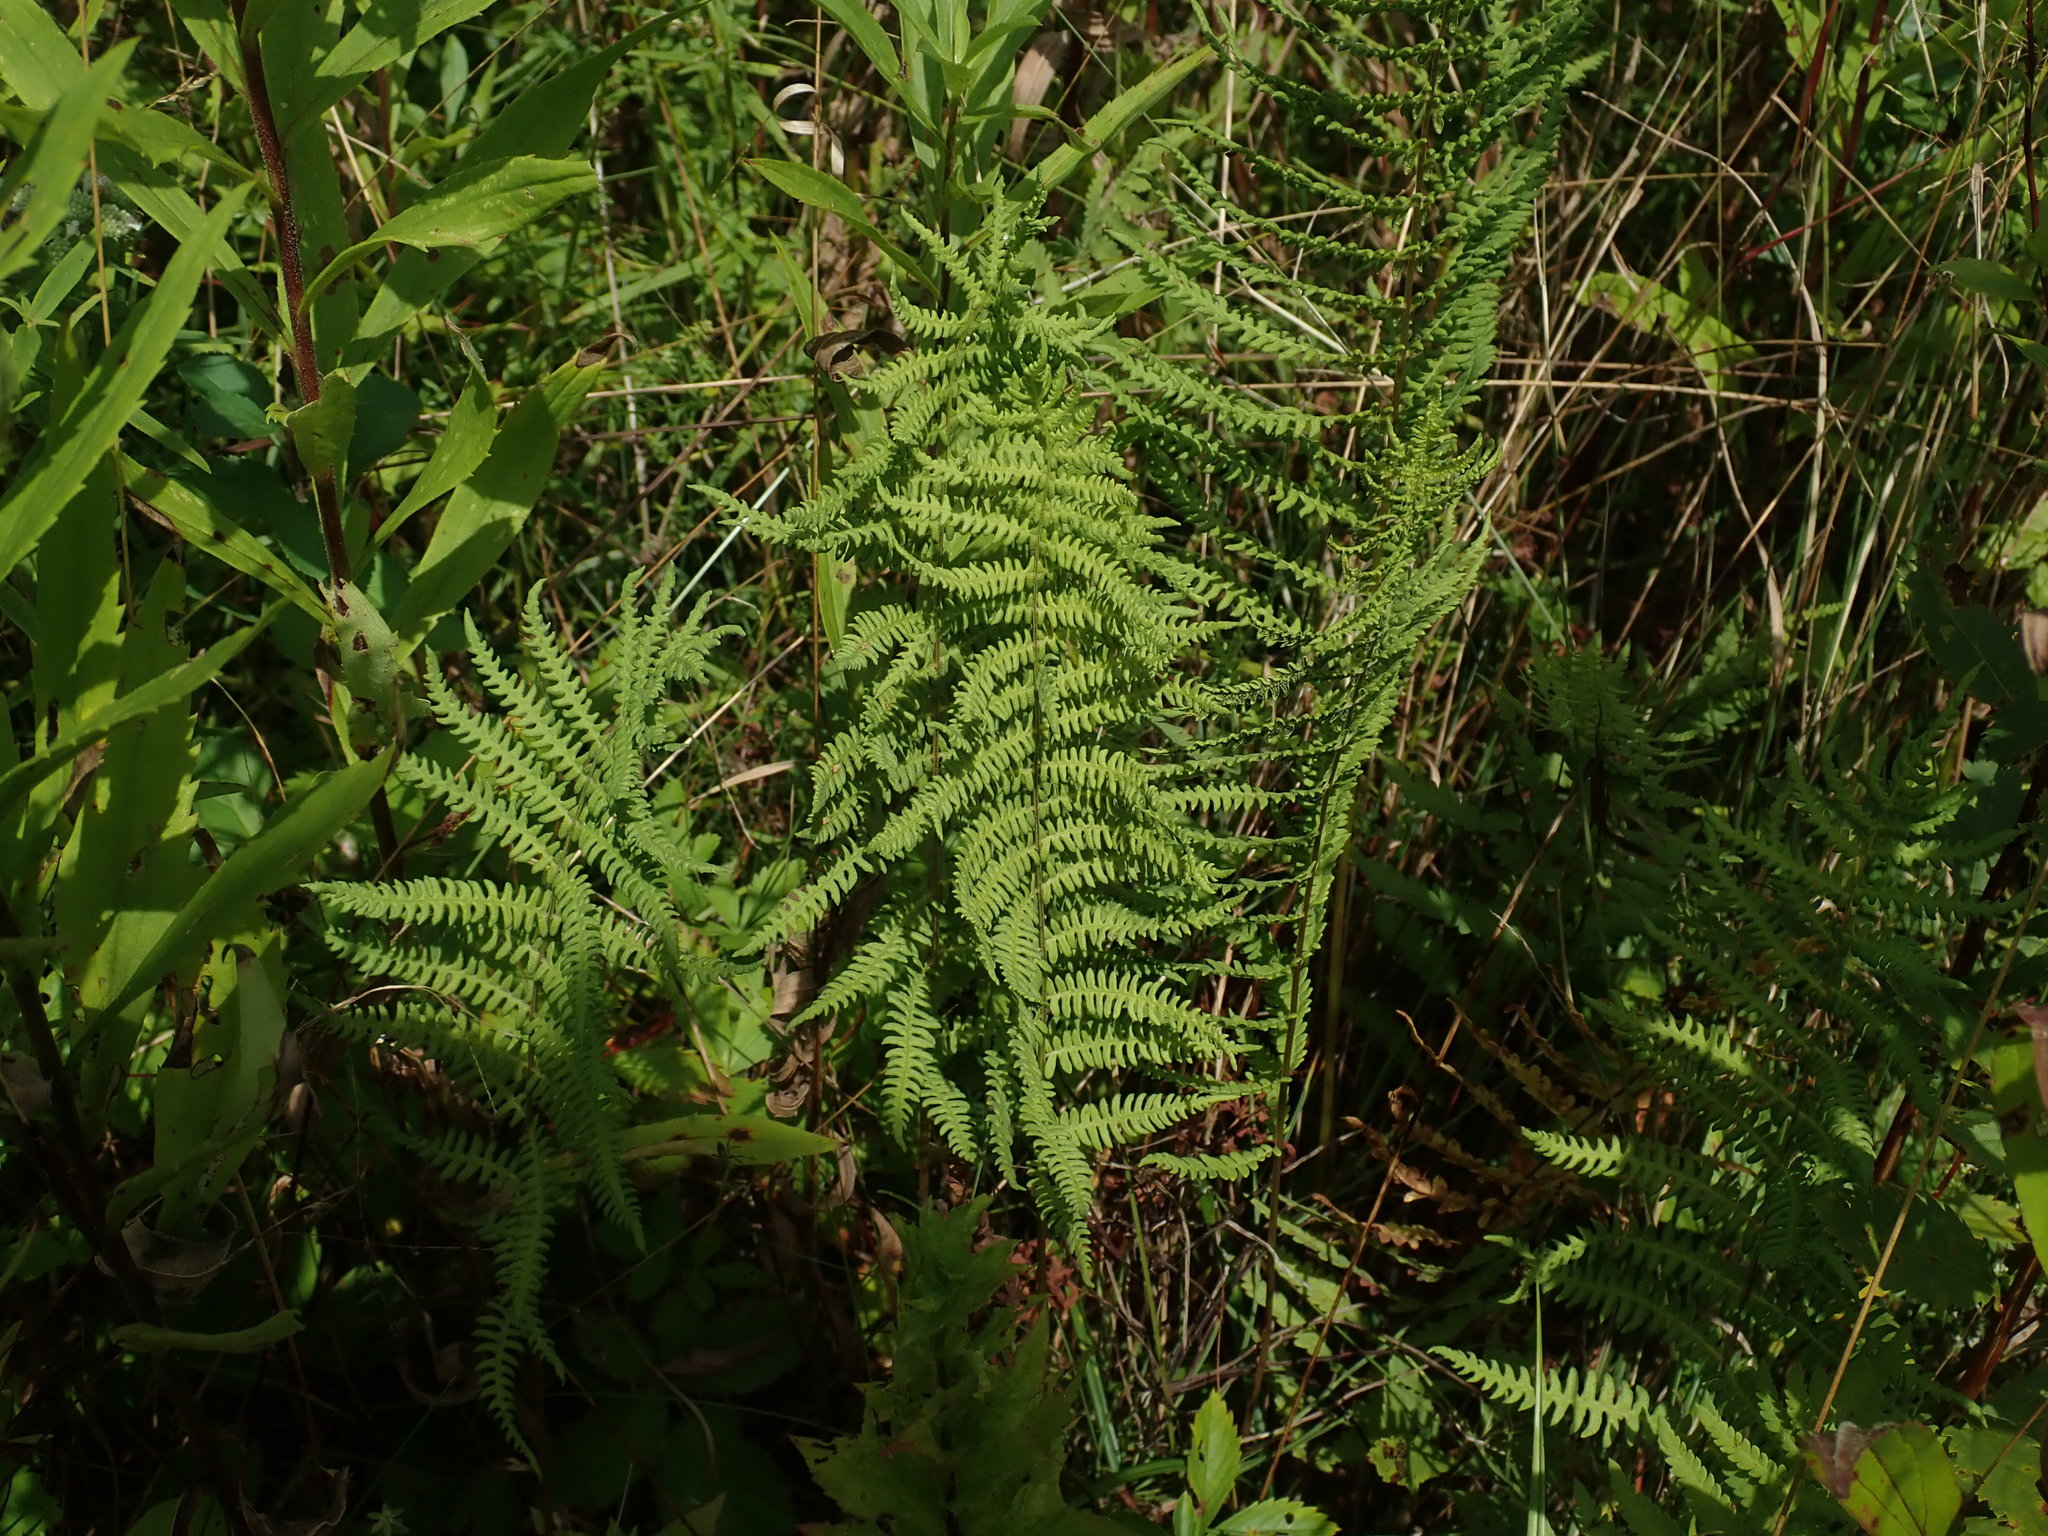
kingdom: Plantae
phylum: Tracheophyta
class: Polypodiopsida
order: Polypodiales
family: Thelypteridaceae
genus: Thelypteris
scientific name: Thelypteris palustris
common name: Marsh fern
